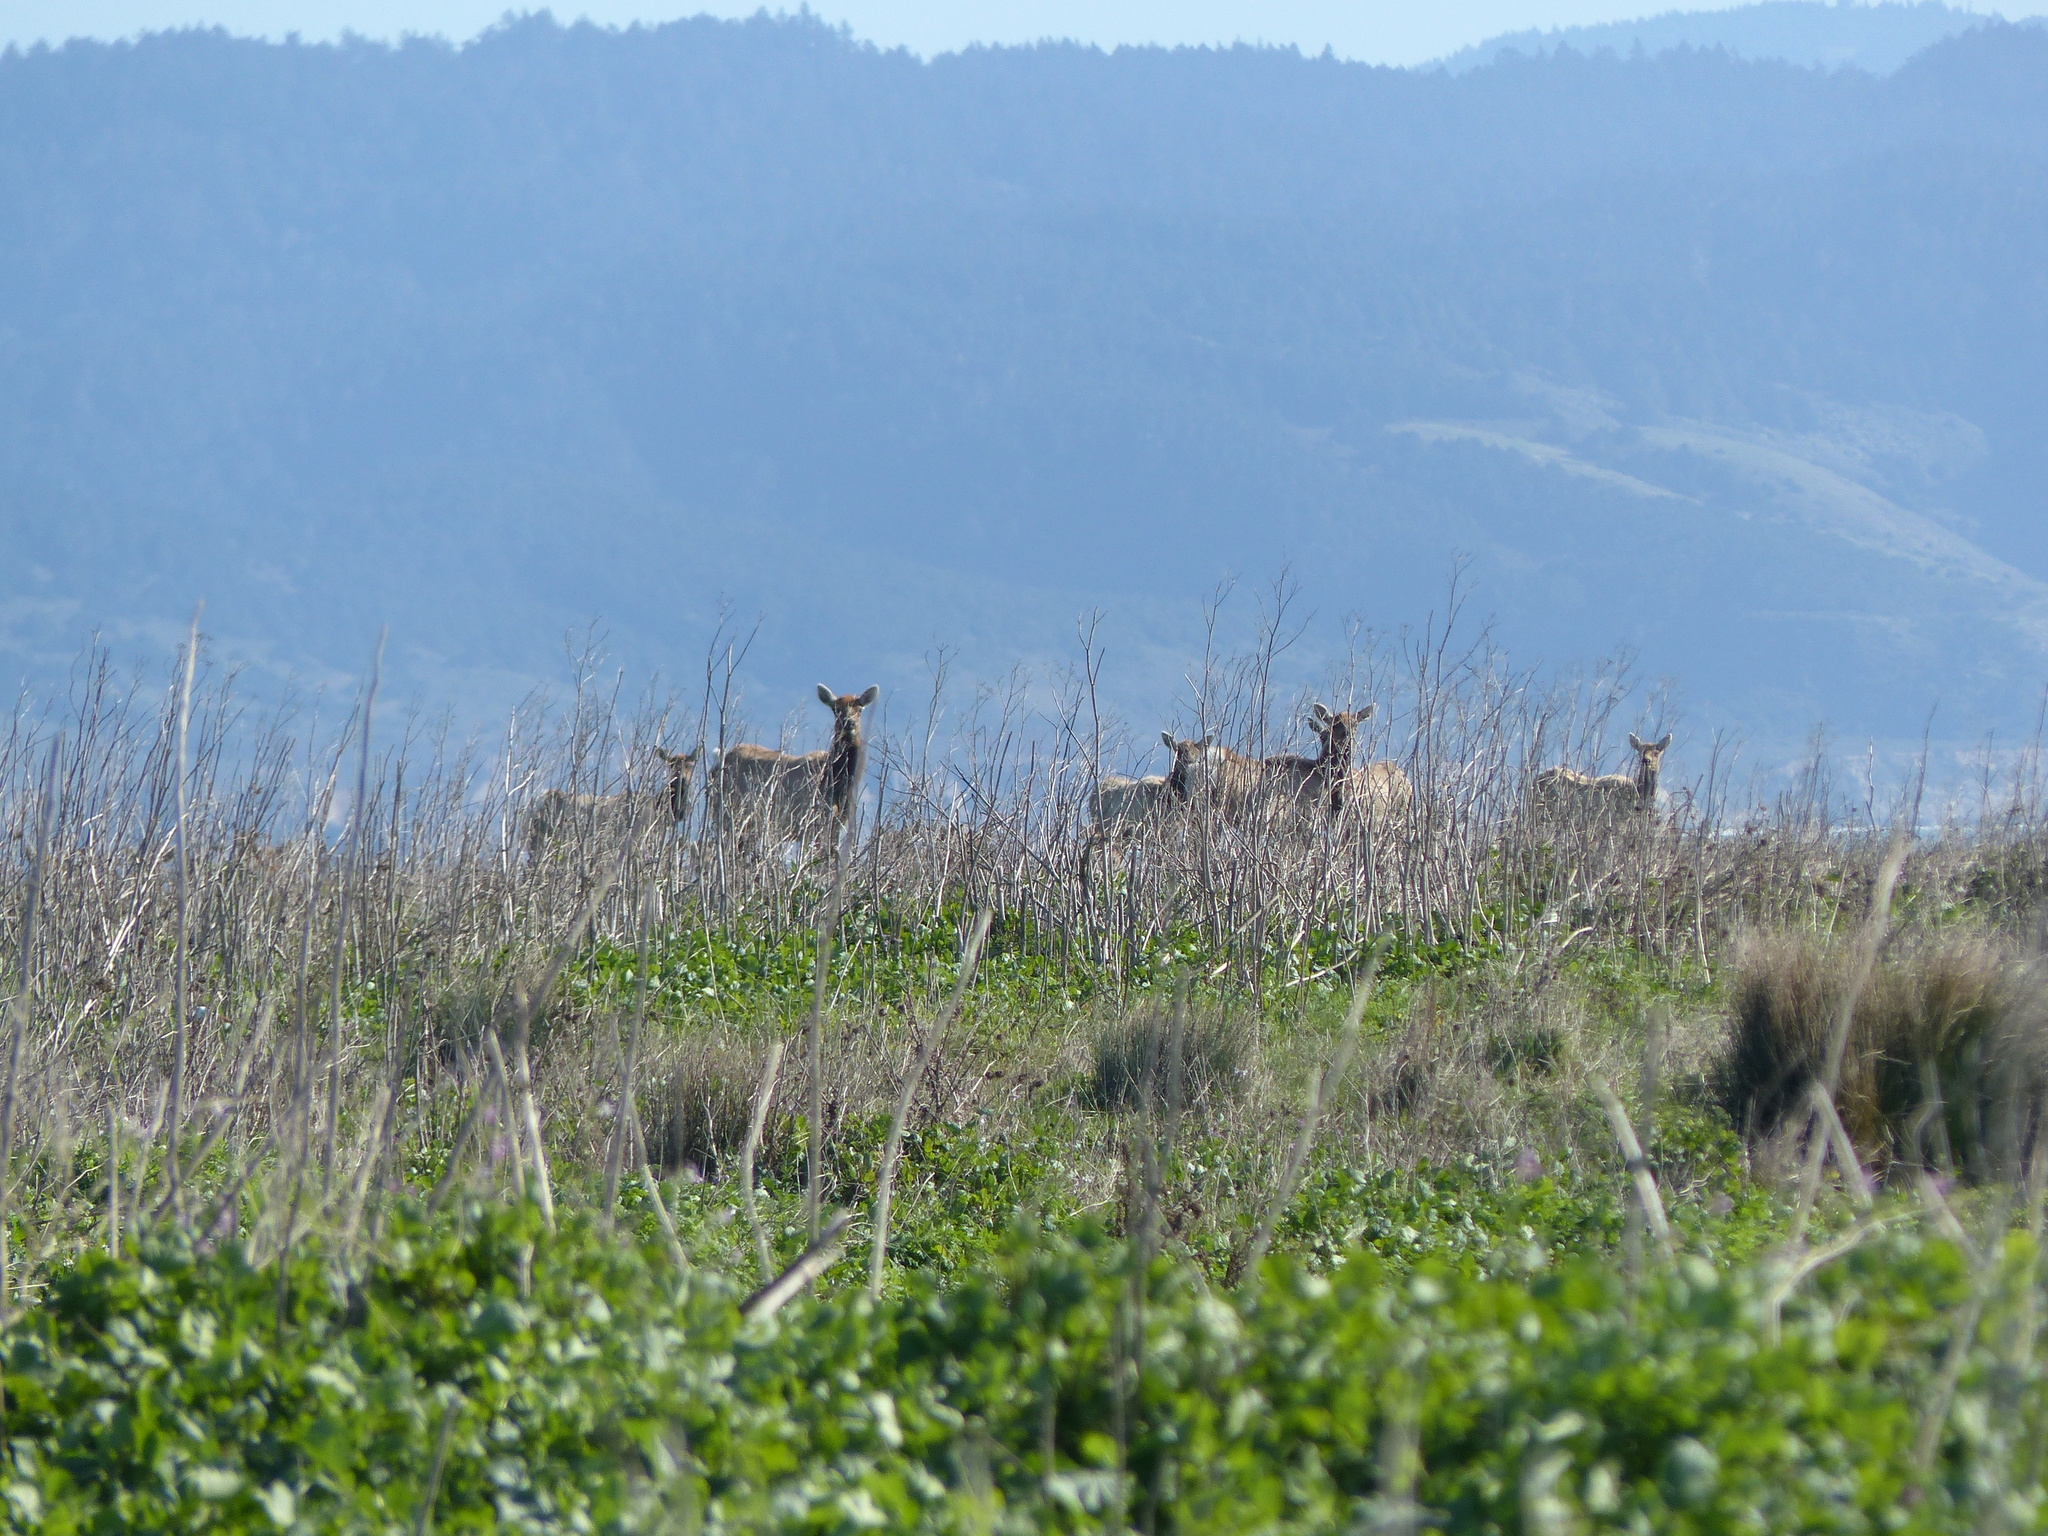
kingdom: Animalia
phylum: Chordata
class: Mammalia
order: Artiodactyla
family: Cervidae
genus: Cervus
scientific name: Cervus elaphus
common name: Red deer
